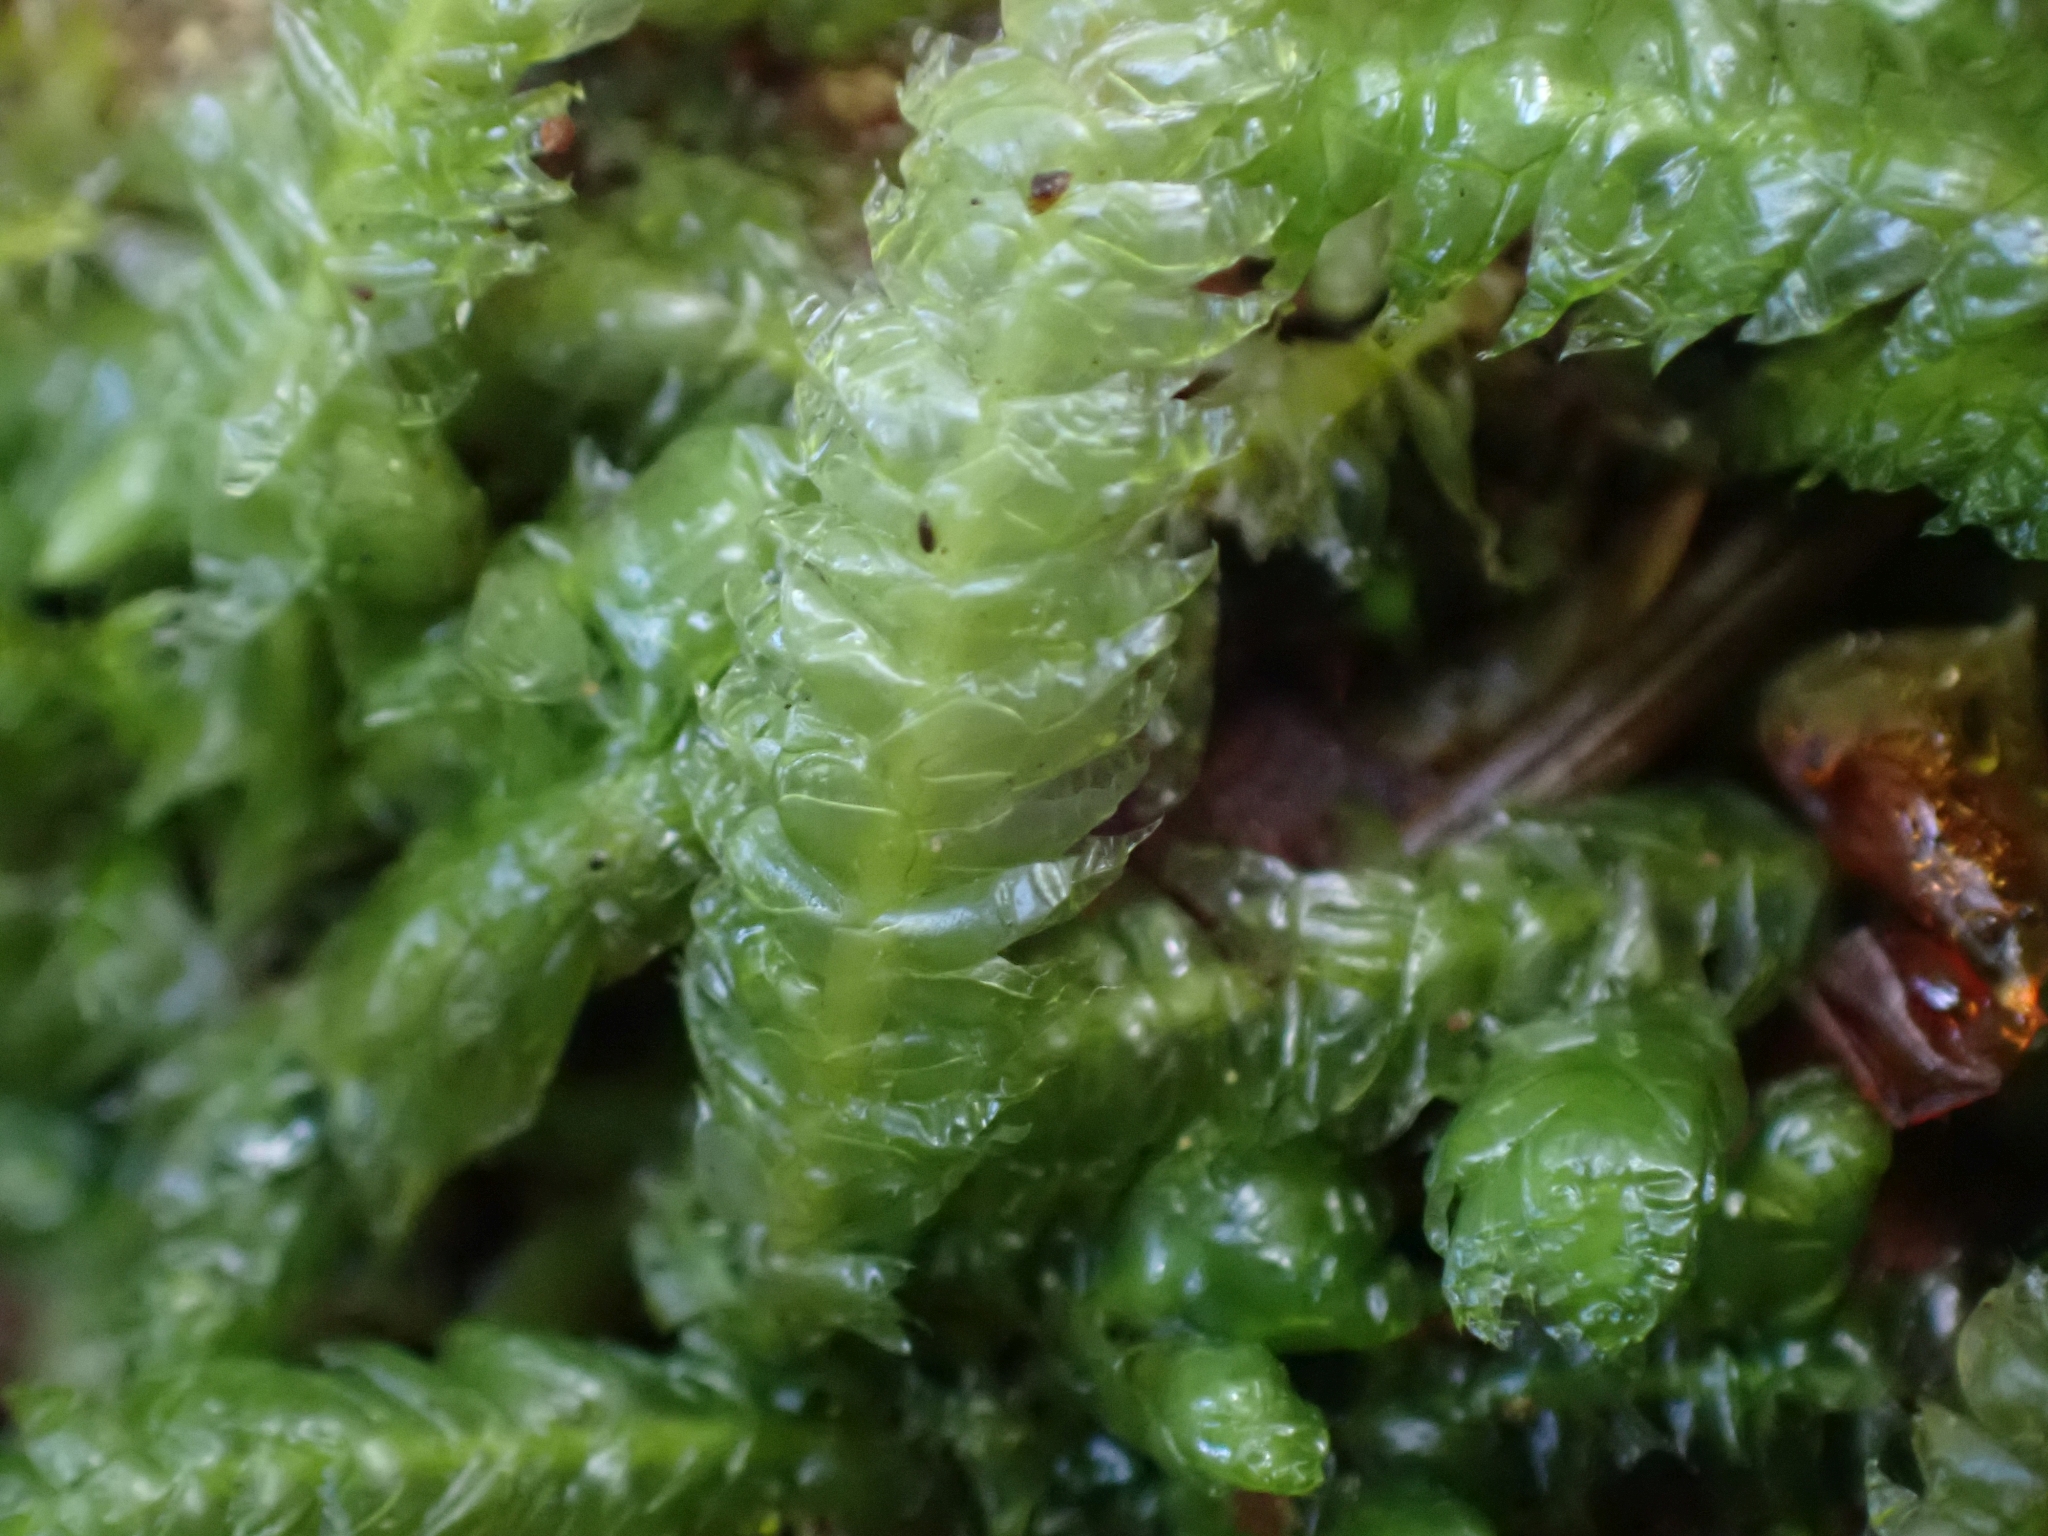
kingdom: Plantae
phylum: Bryophyta
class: Bryopsida
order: Hypnales
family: Plagiotheciaceae
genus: Plagiothecium
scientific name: Plagiothecium undulatum
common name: Waved silk-moss
